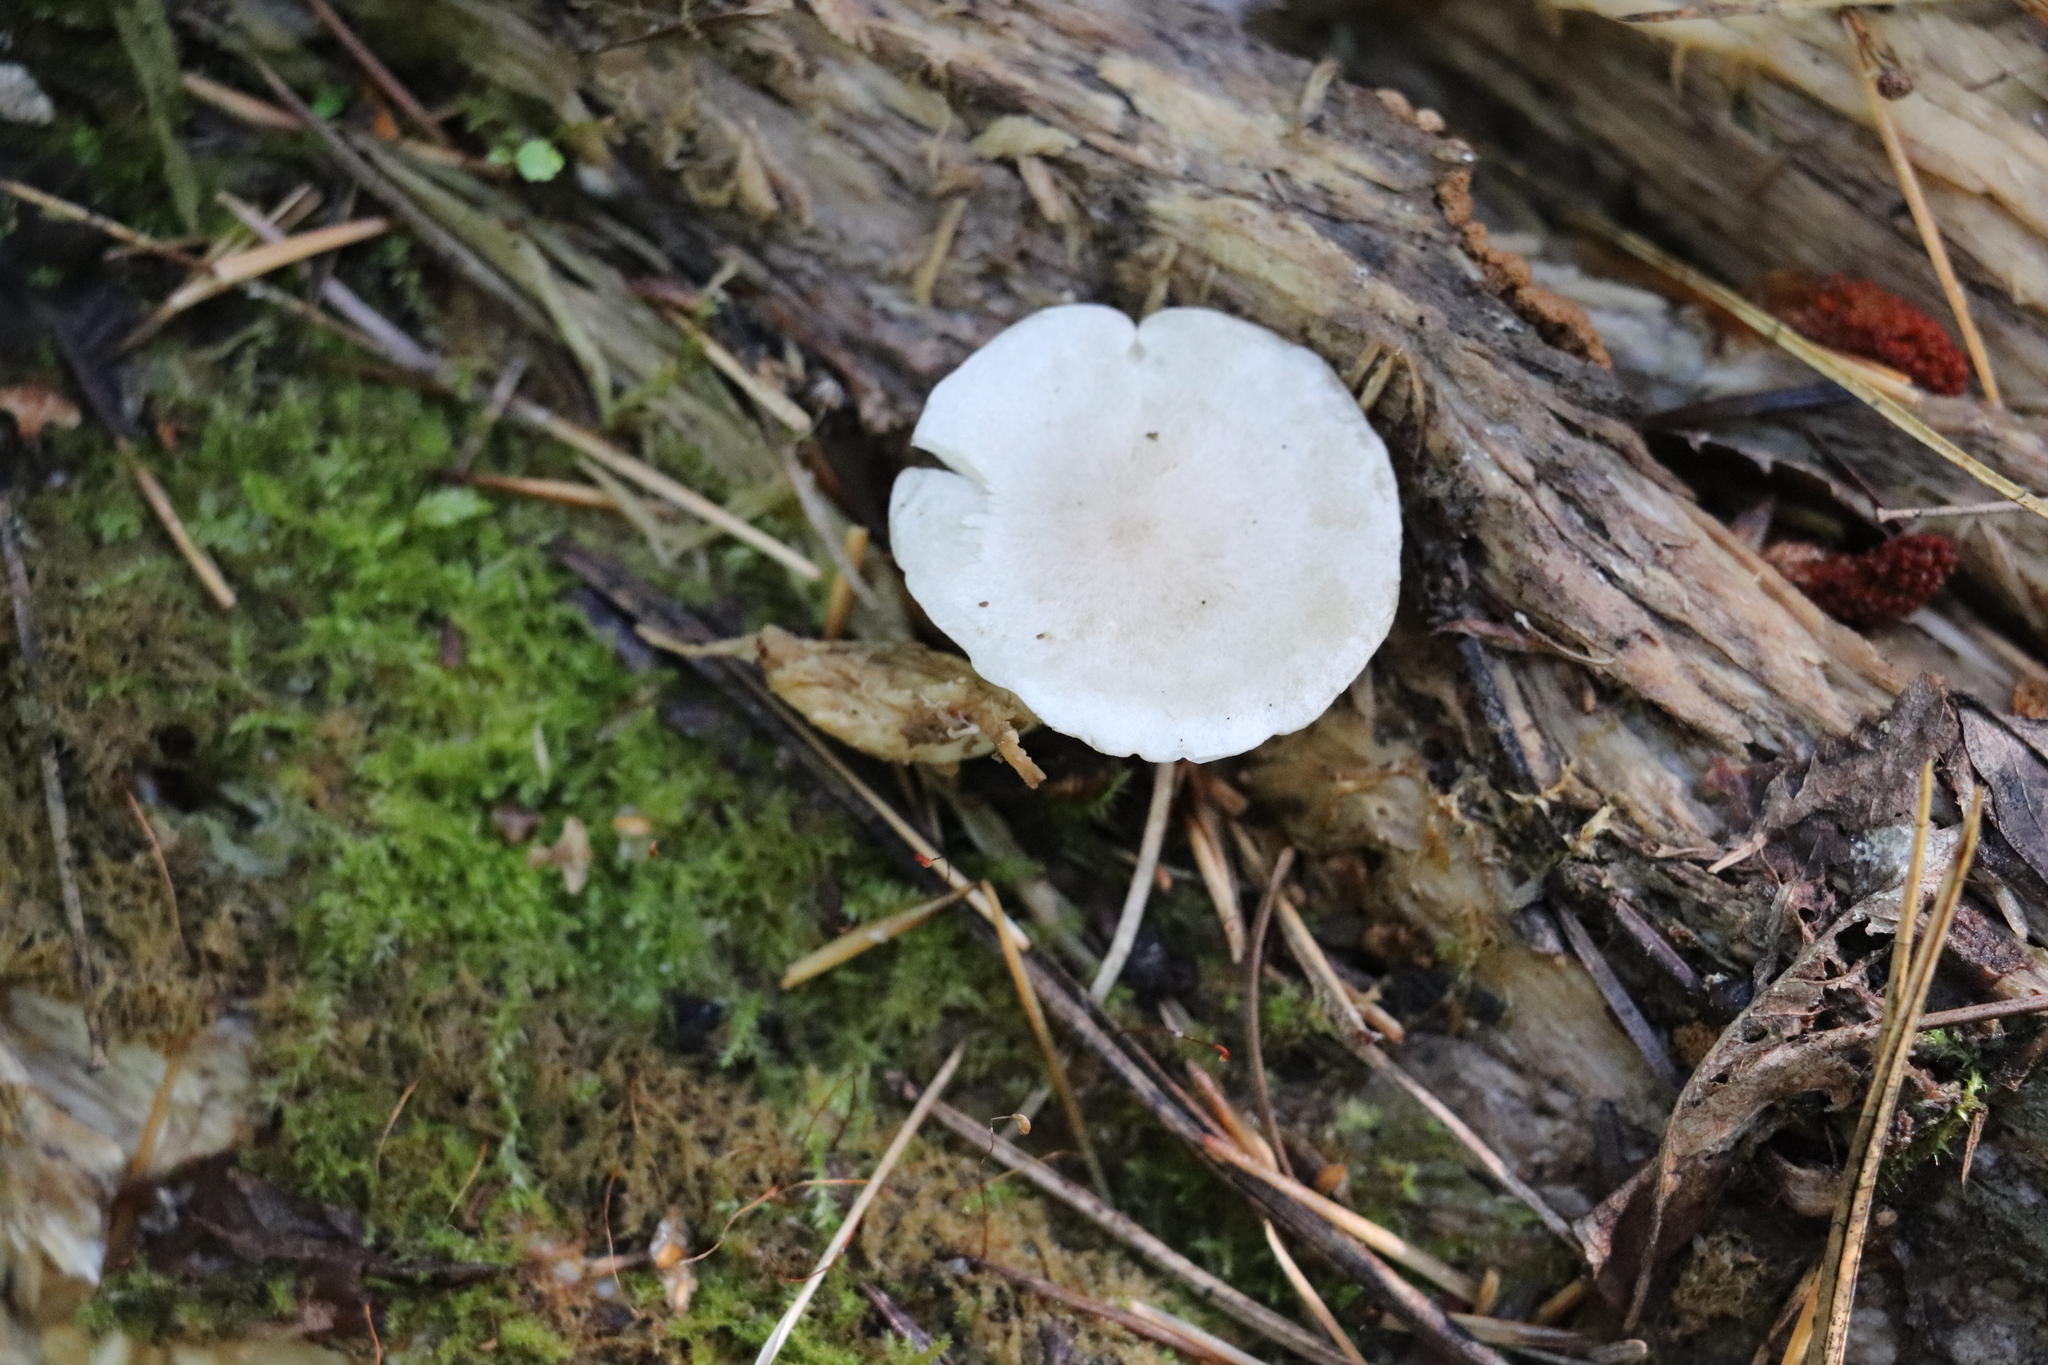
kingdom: Fungi
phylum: Basidiomycota
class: Agaricomycetes
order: Agaricales
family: Lyophyllaceae
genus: Ossicaulis
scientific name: Ossicaulis lignatilis
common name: Mealy oyster
